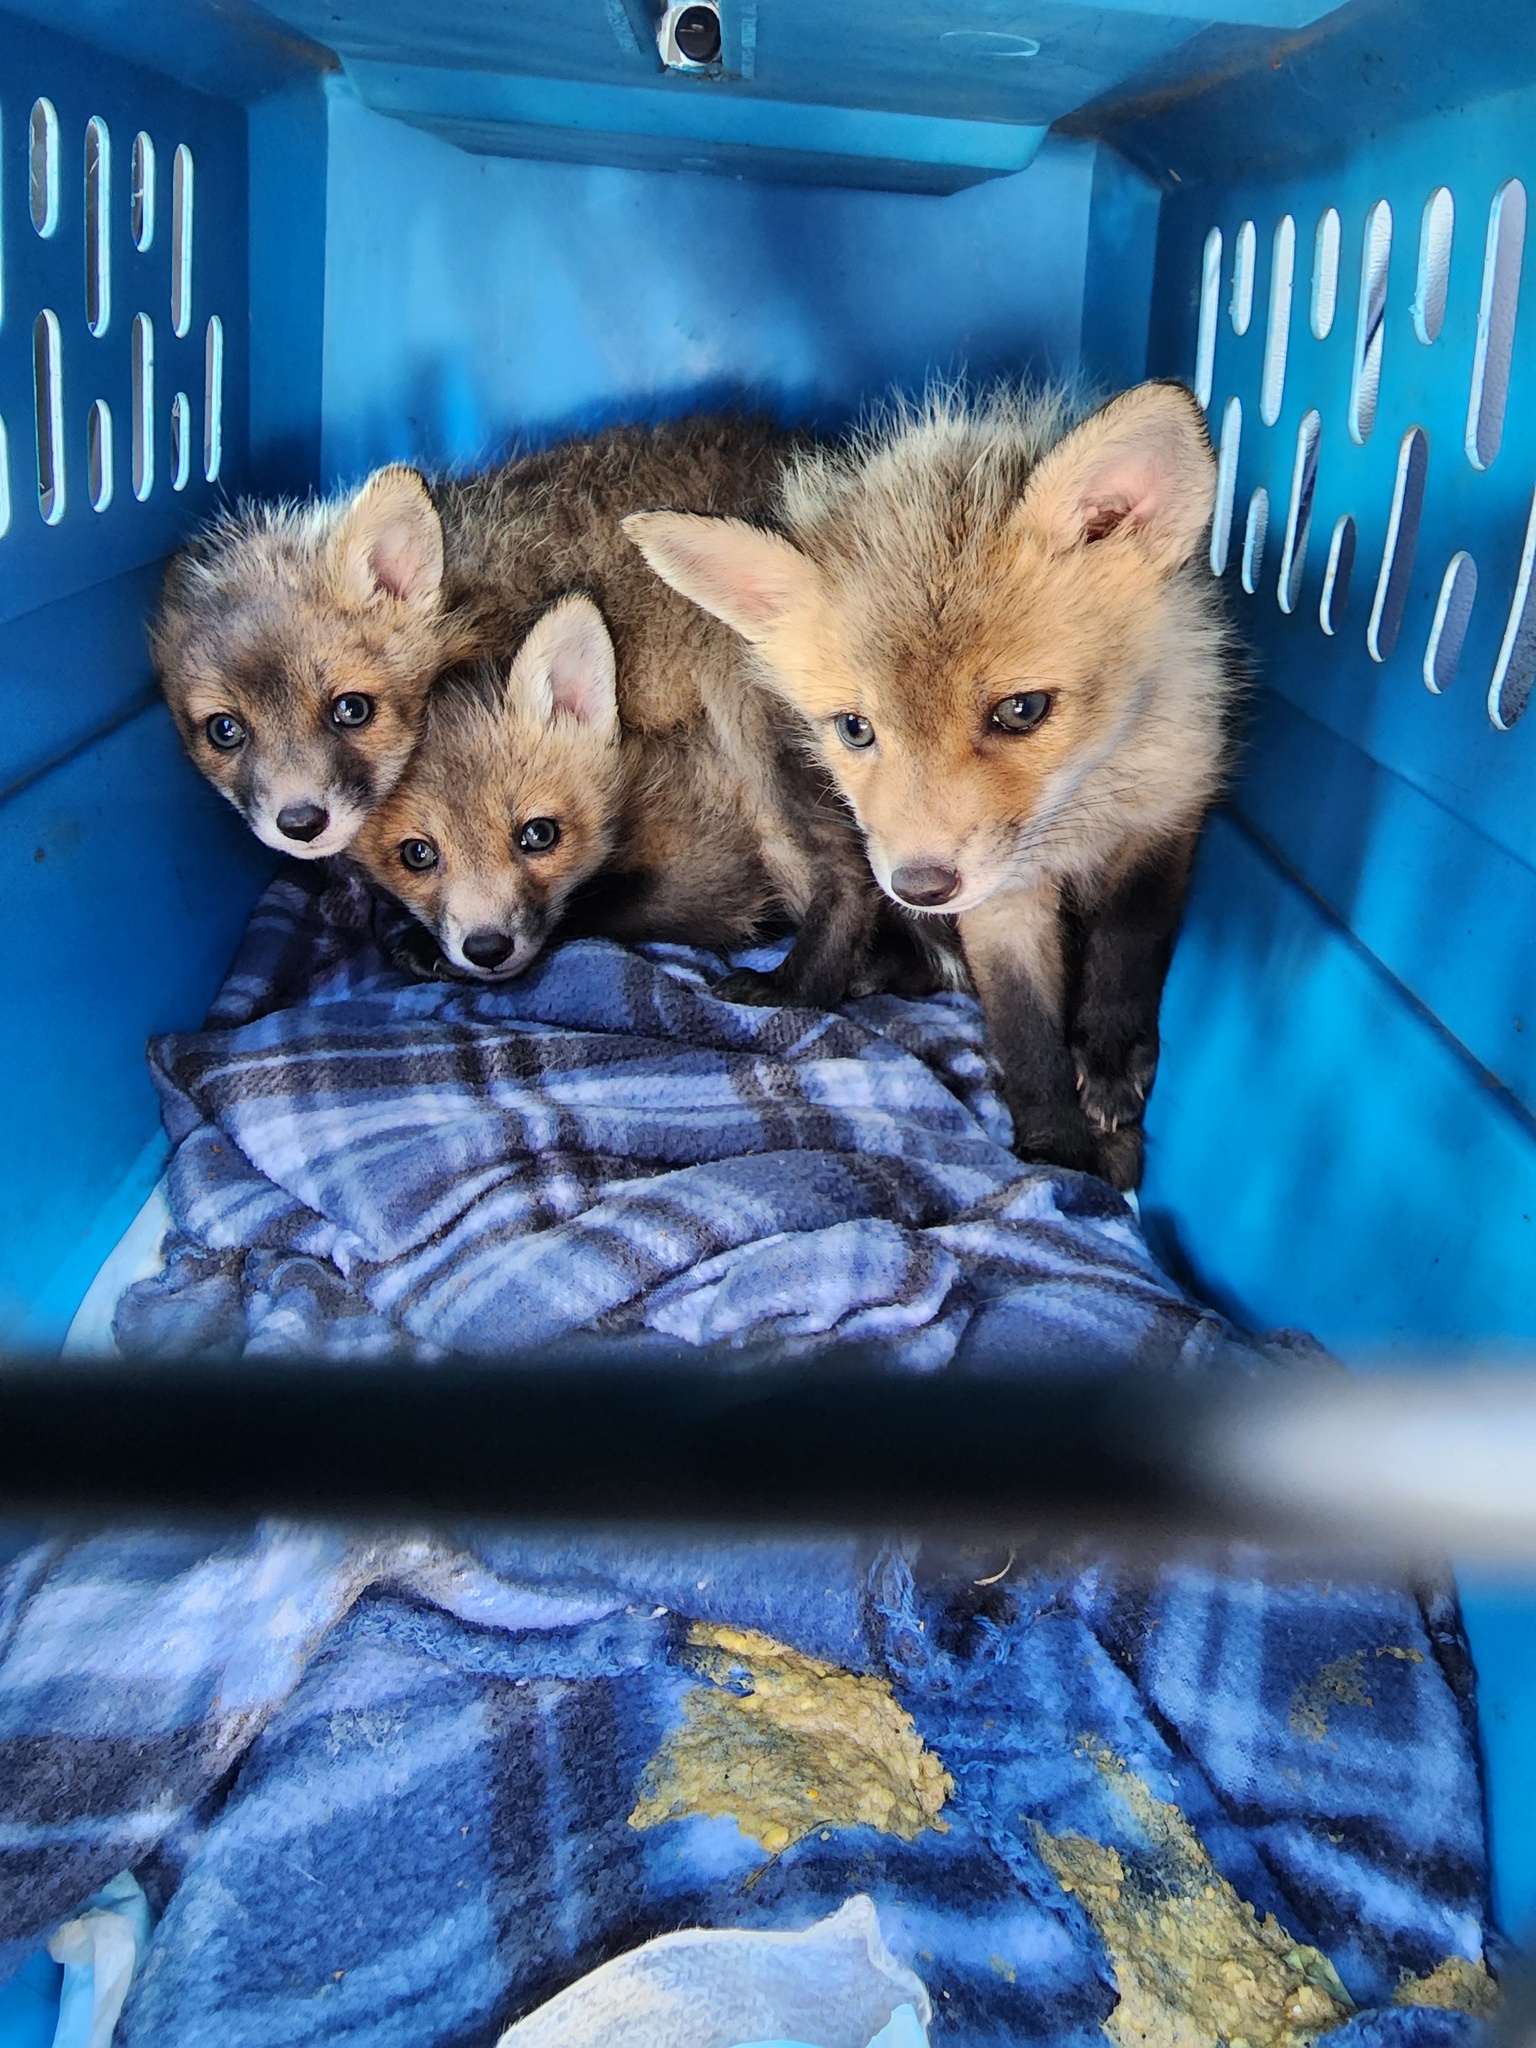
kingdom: Animalia
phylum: Chordata
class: Mammalia
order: Carnivora
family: Canidae
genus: Vulpes
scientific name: Vulpes vulpes
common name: Red fox
